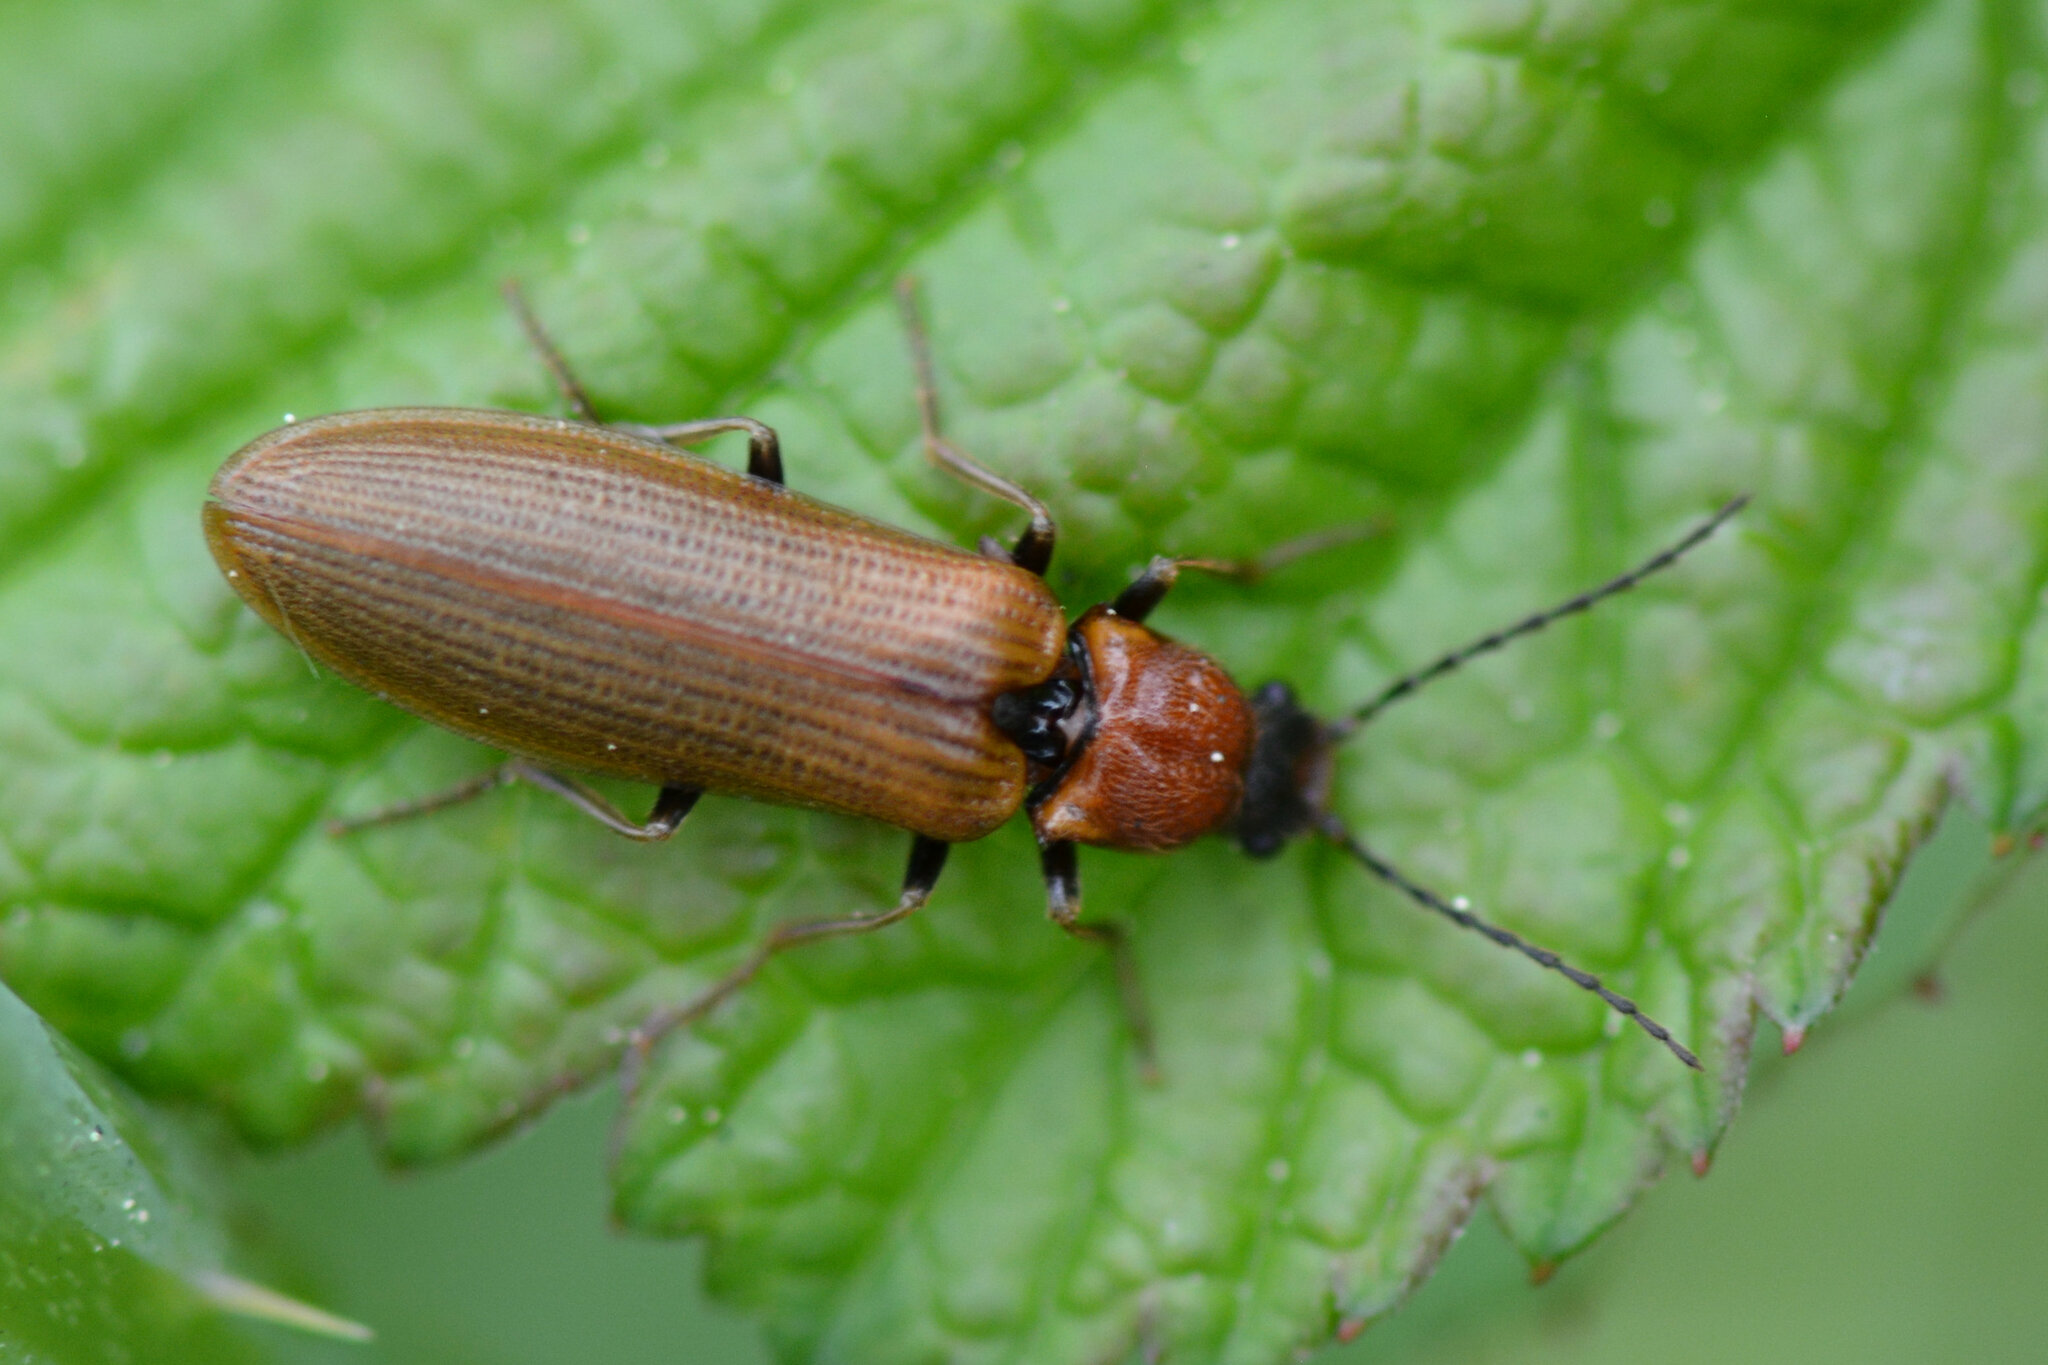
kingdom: Animalia
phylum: Arthropoda
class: Insecta
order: Coleoptera
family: Elateridae
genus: Denticollis
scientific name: Denticollis linearis
